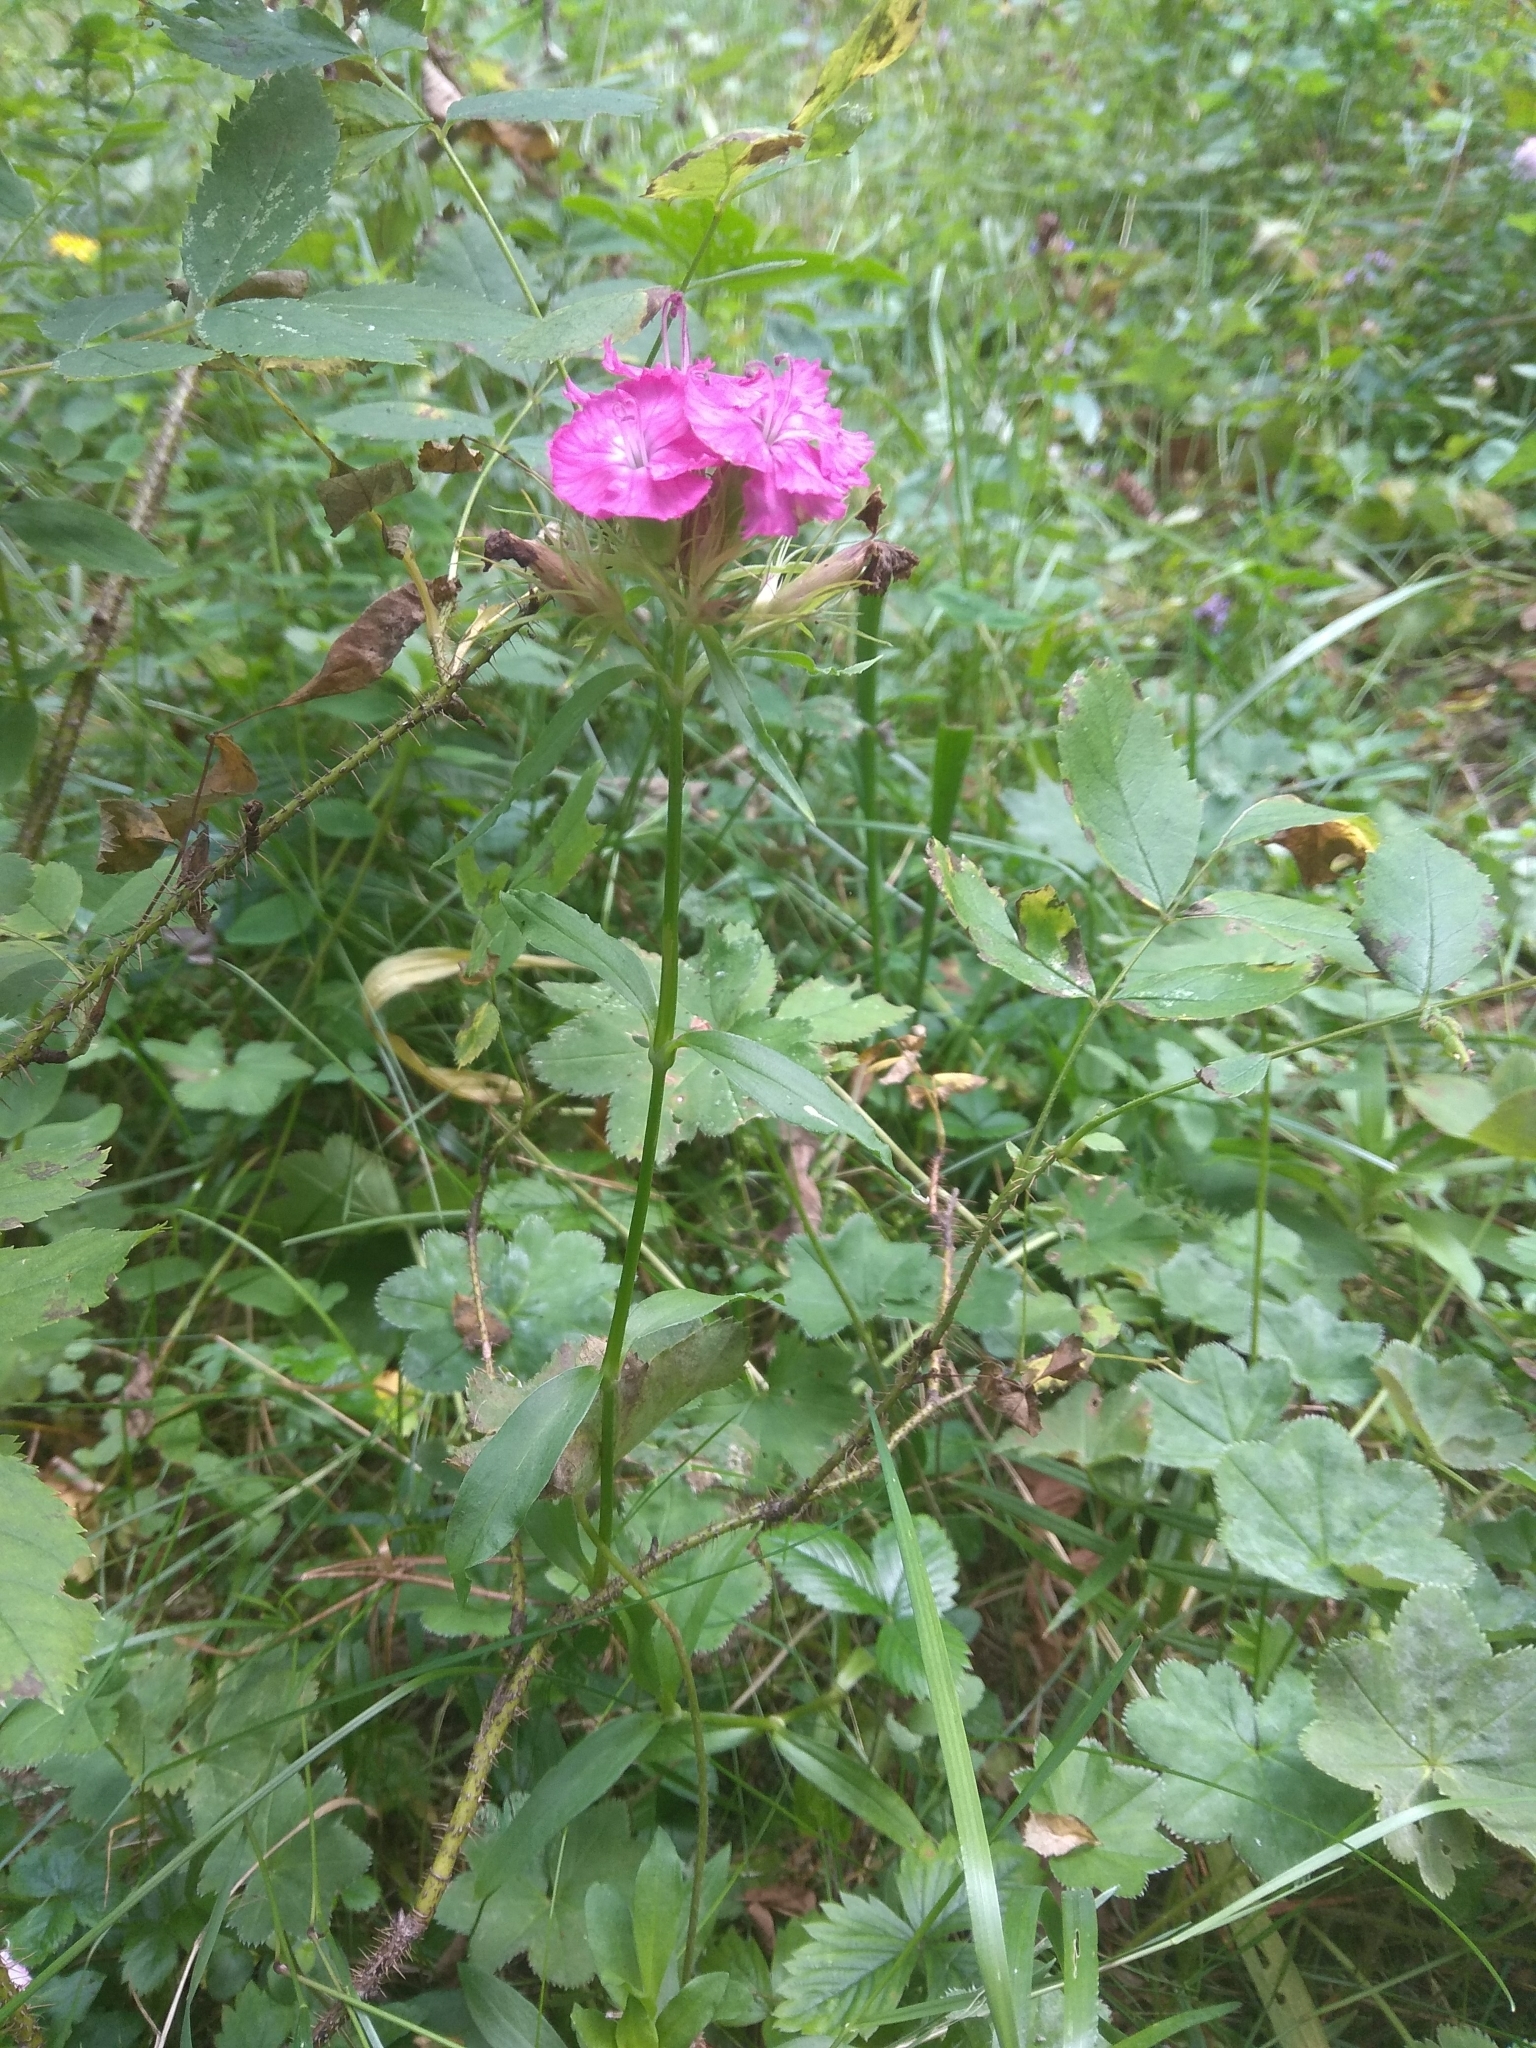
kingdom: Plantae
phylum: Tracheophyta
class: Magnoliopsida
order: Caryophyllales
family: Caryophyllaceae
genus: Dianthus
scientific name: Dianthus barbatus
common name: Sweet-william
